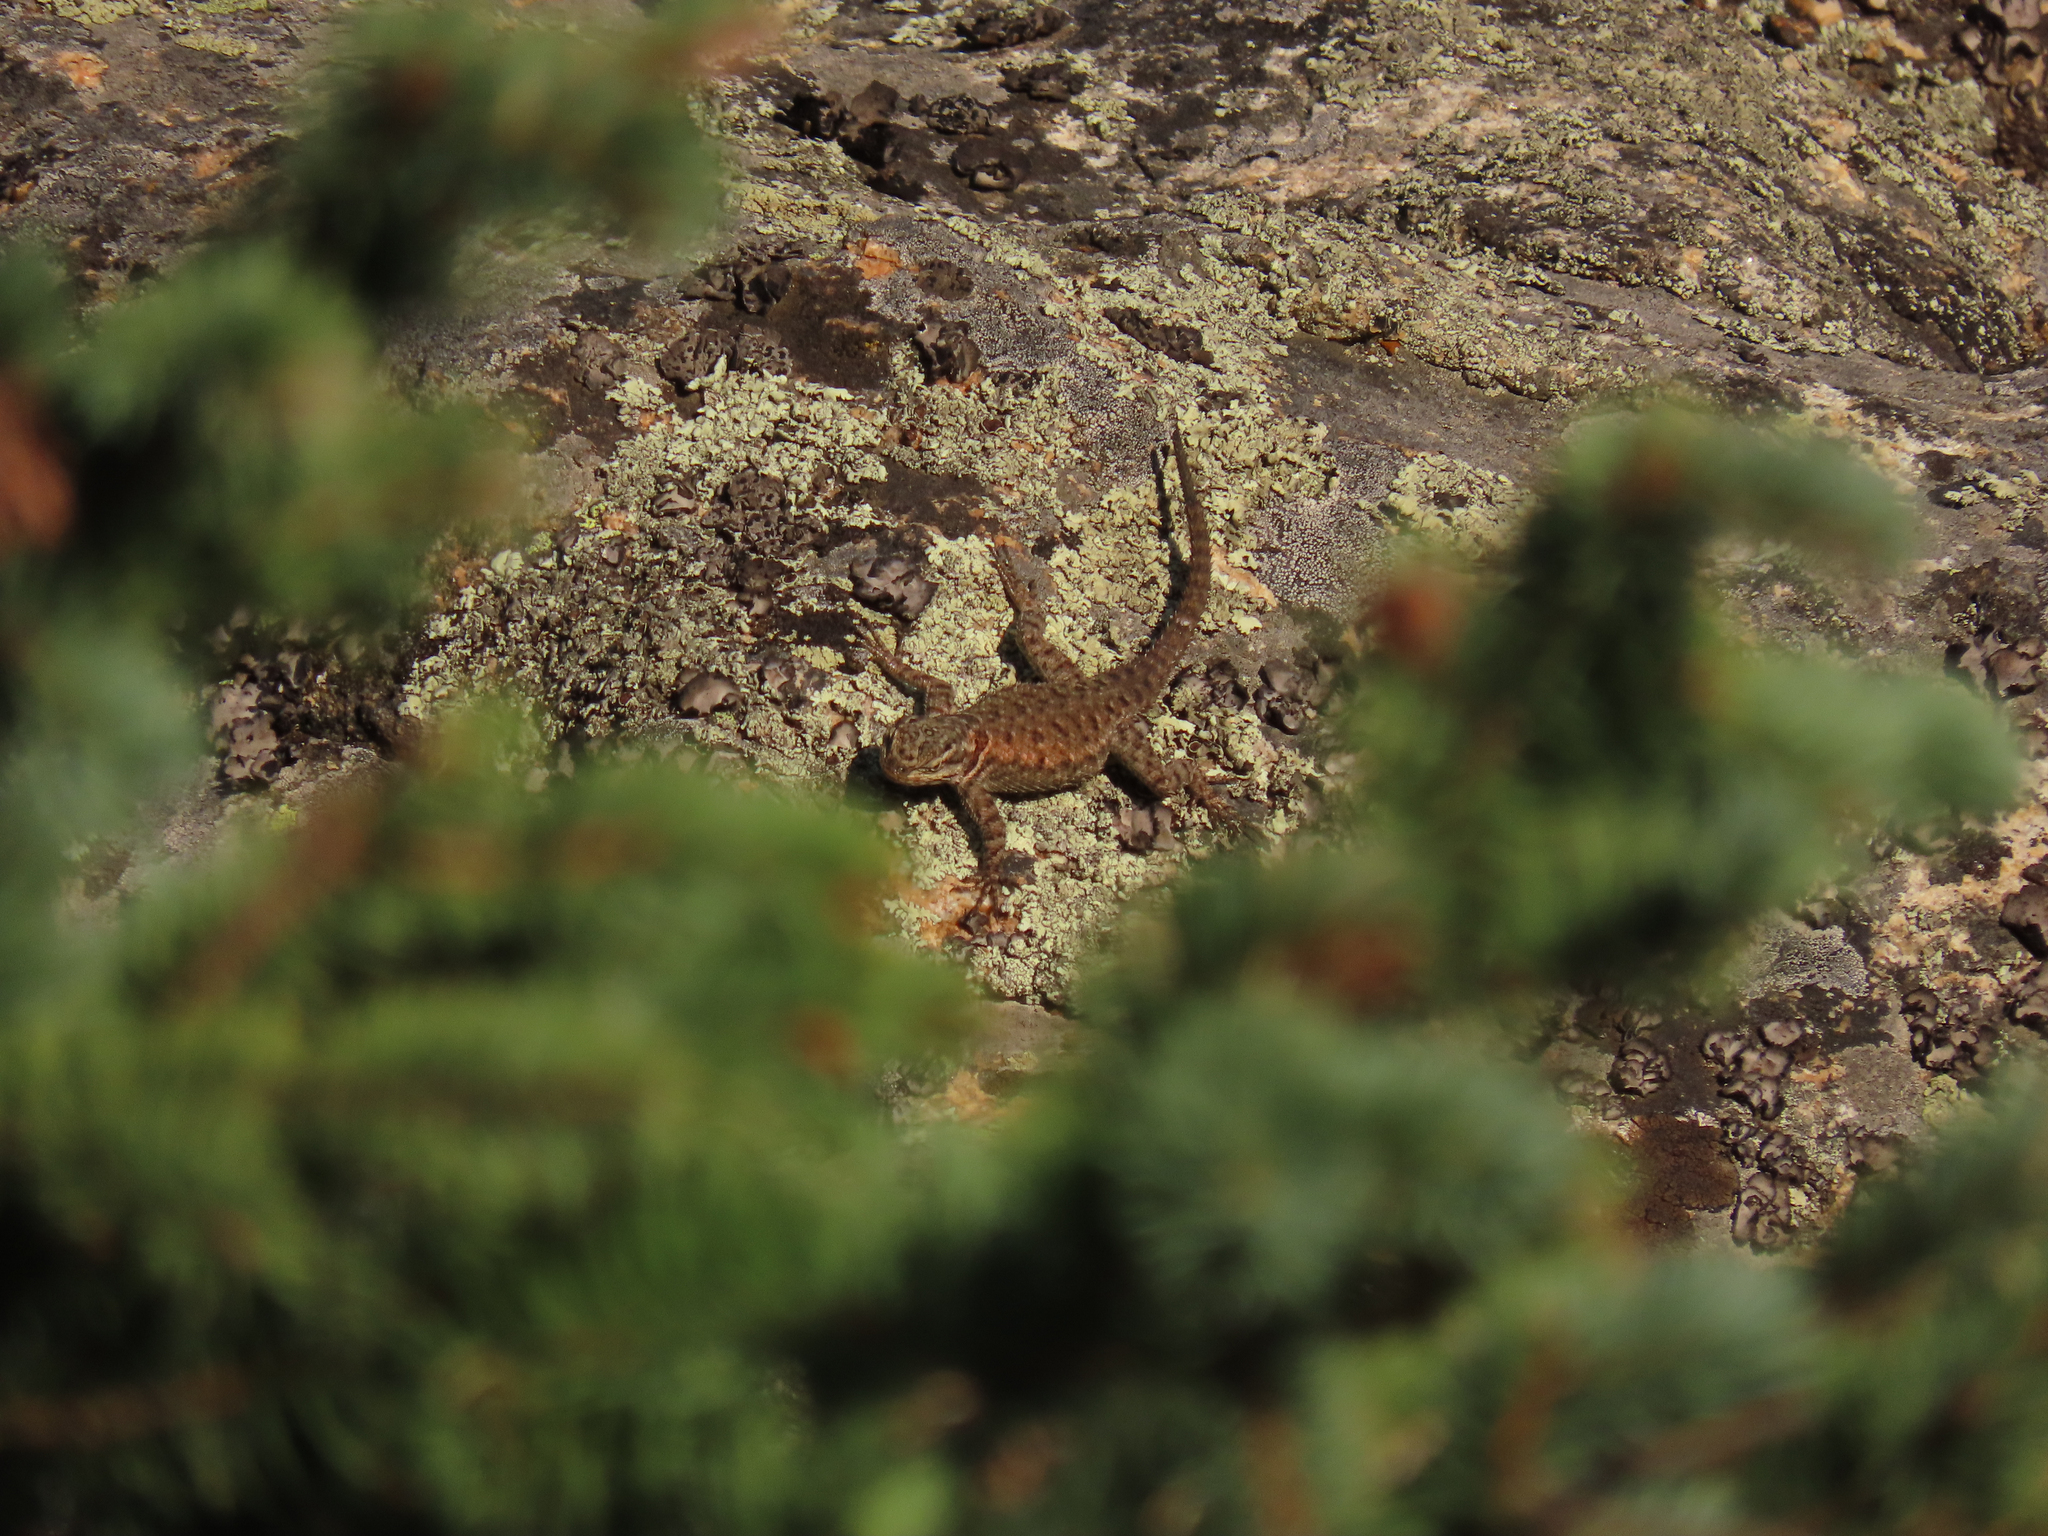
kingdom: Animalia
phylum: Chordata
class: Squamata
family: Phrynosomatidae
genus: Sceloporus
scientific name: Sceloporus jarrovii
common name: Yarrow's spiny lizard
